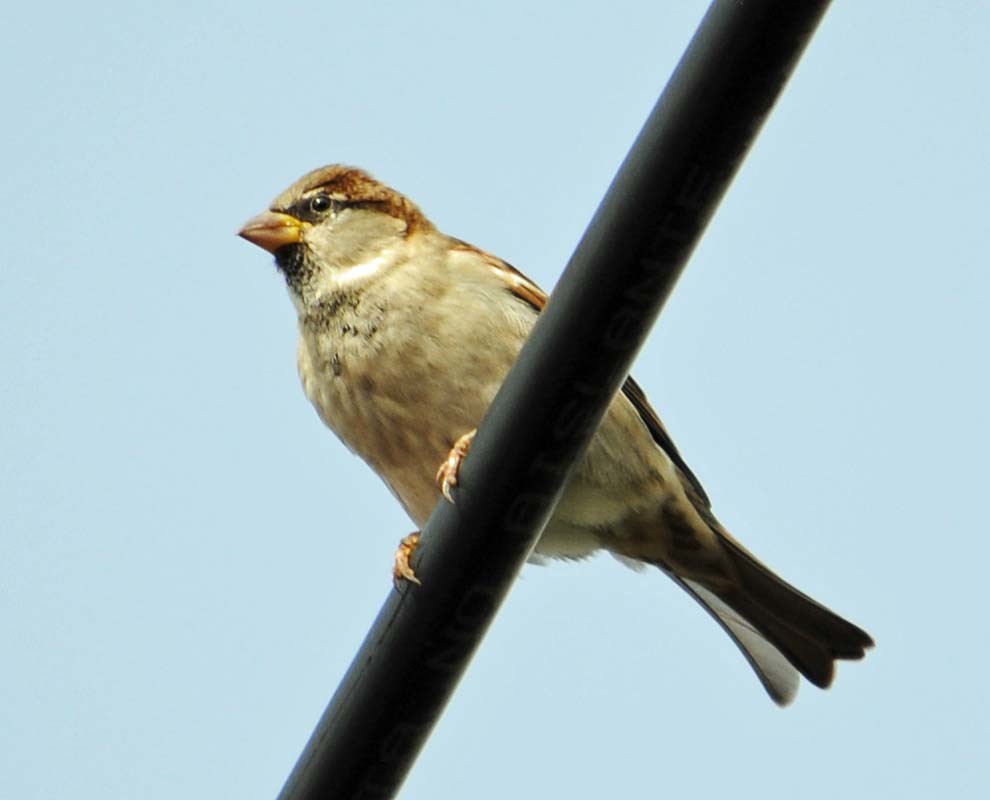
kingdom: Animalia
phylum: Chordata
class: Aves
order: Passeriformes
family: Passeridae
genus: Passer
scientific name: Passer domesticus
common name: House sparrow
